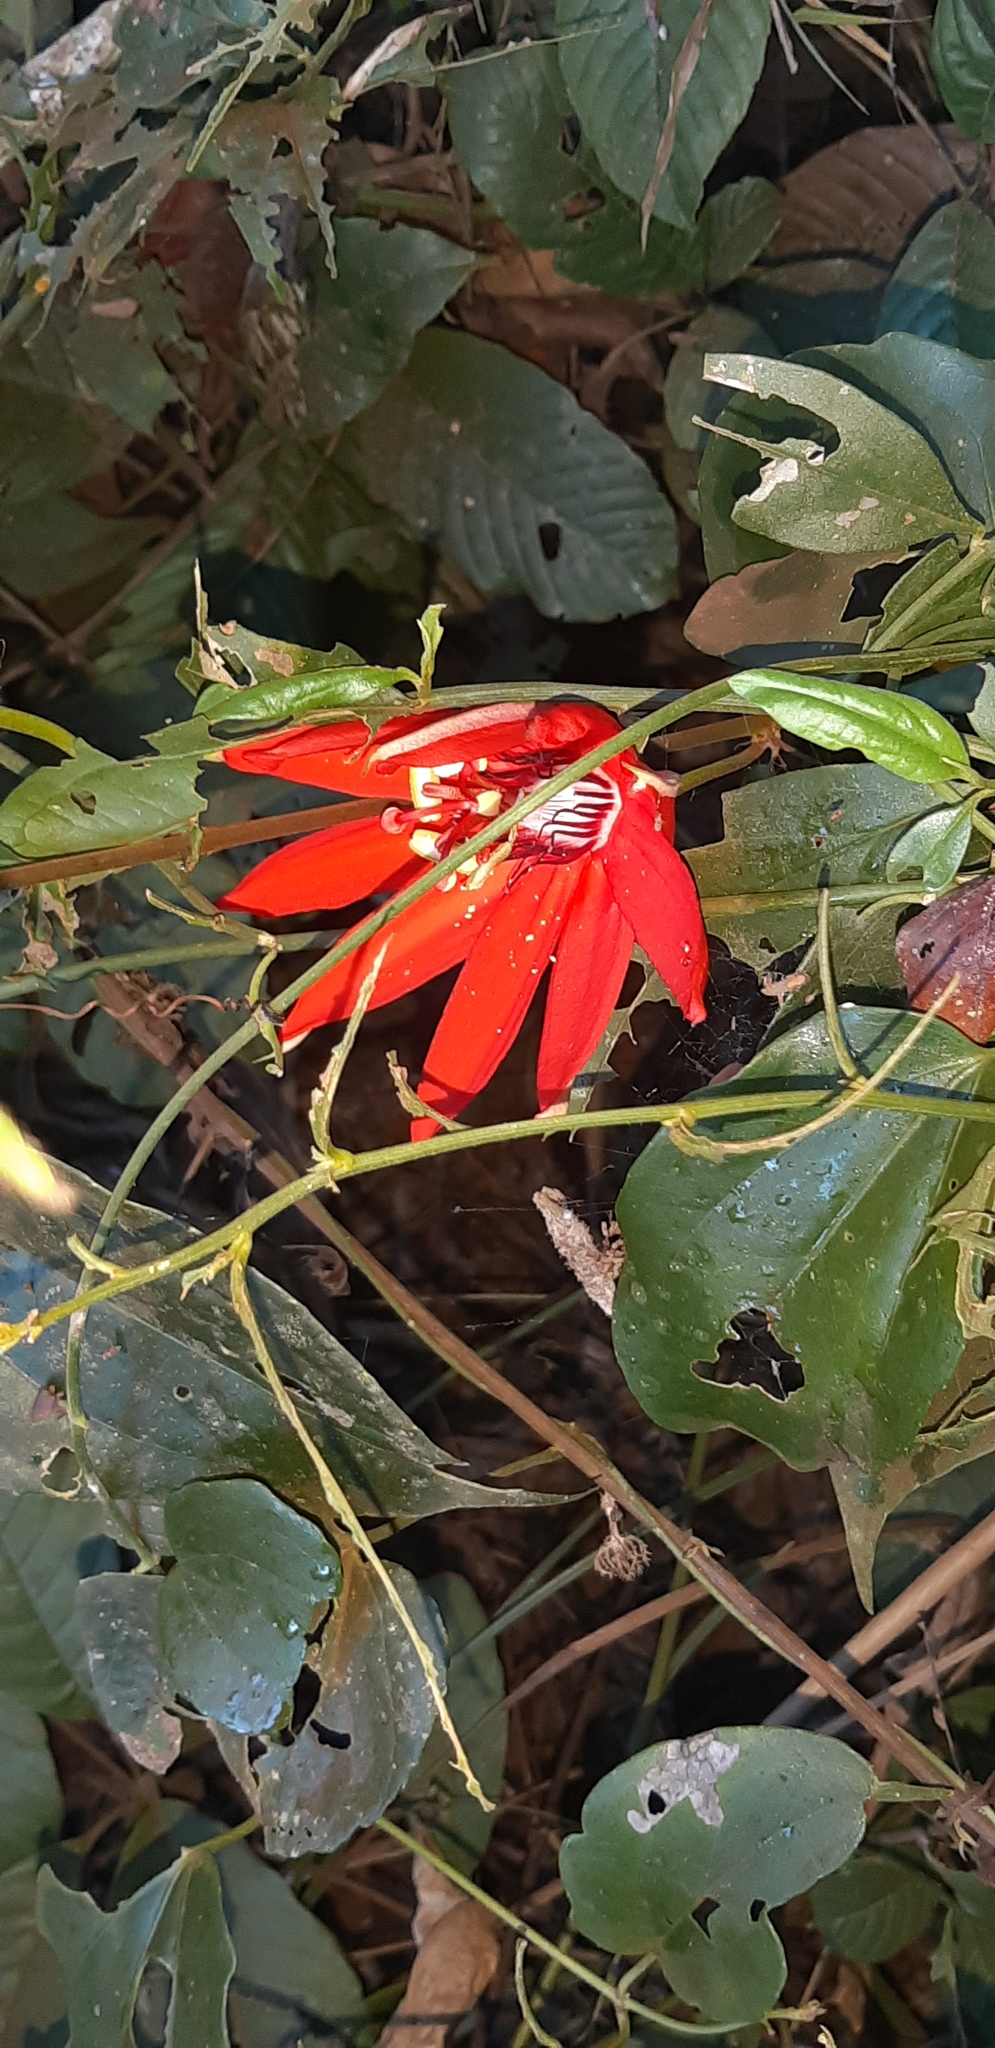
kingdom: Plantae
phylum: Tracheophyta
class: Magnoliopsida
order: Malpighiales
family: Passifloraceae
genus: Passiflora
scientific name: Passiflora miniata
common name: Red granadilla
